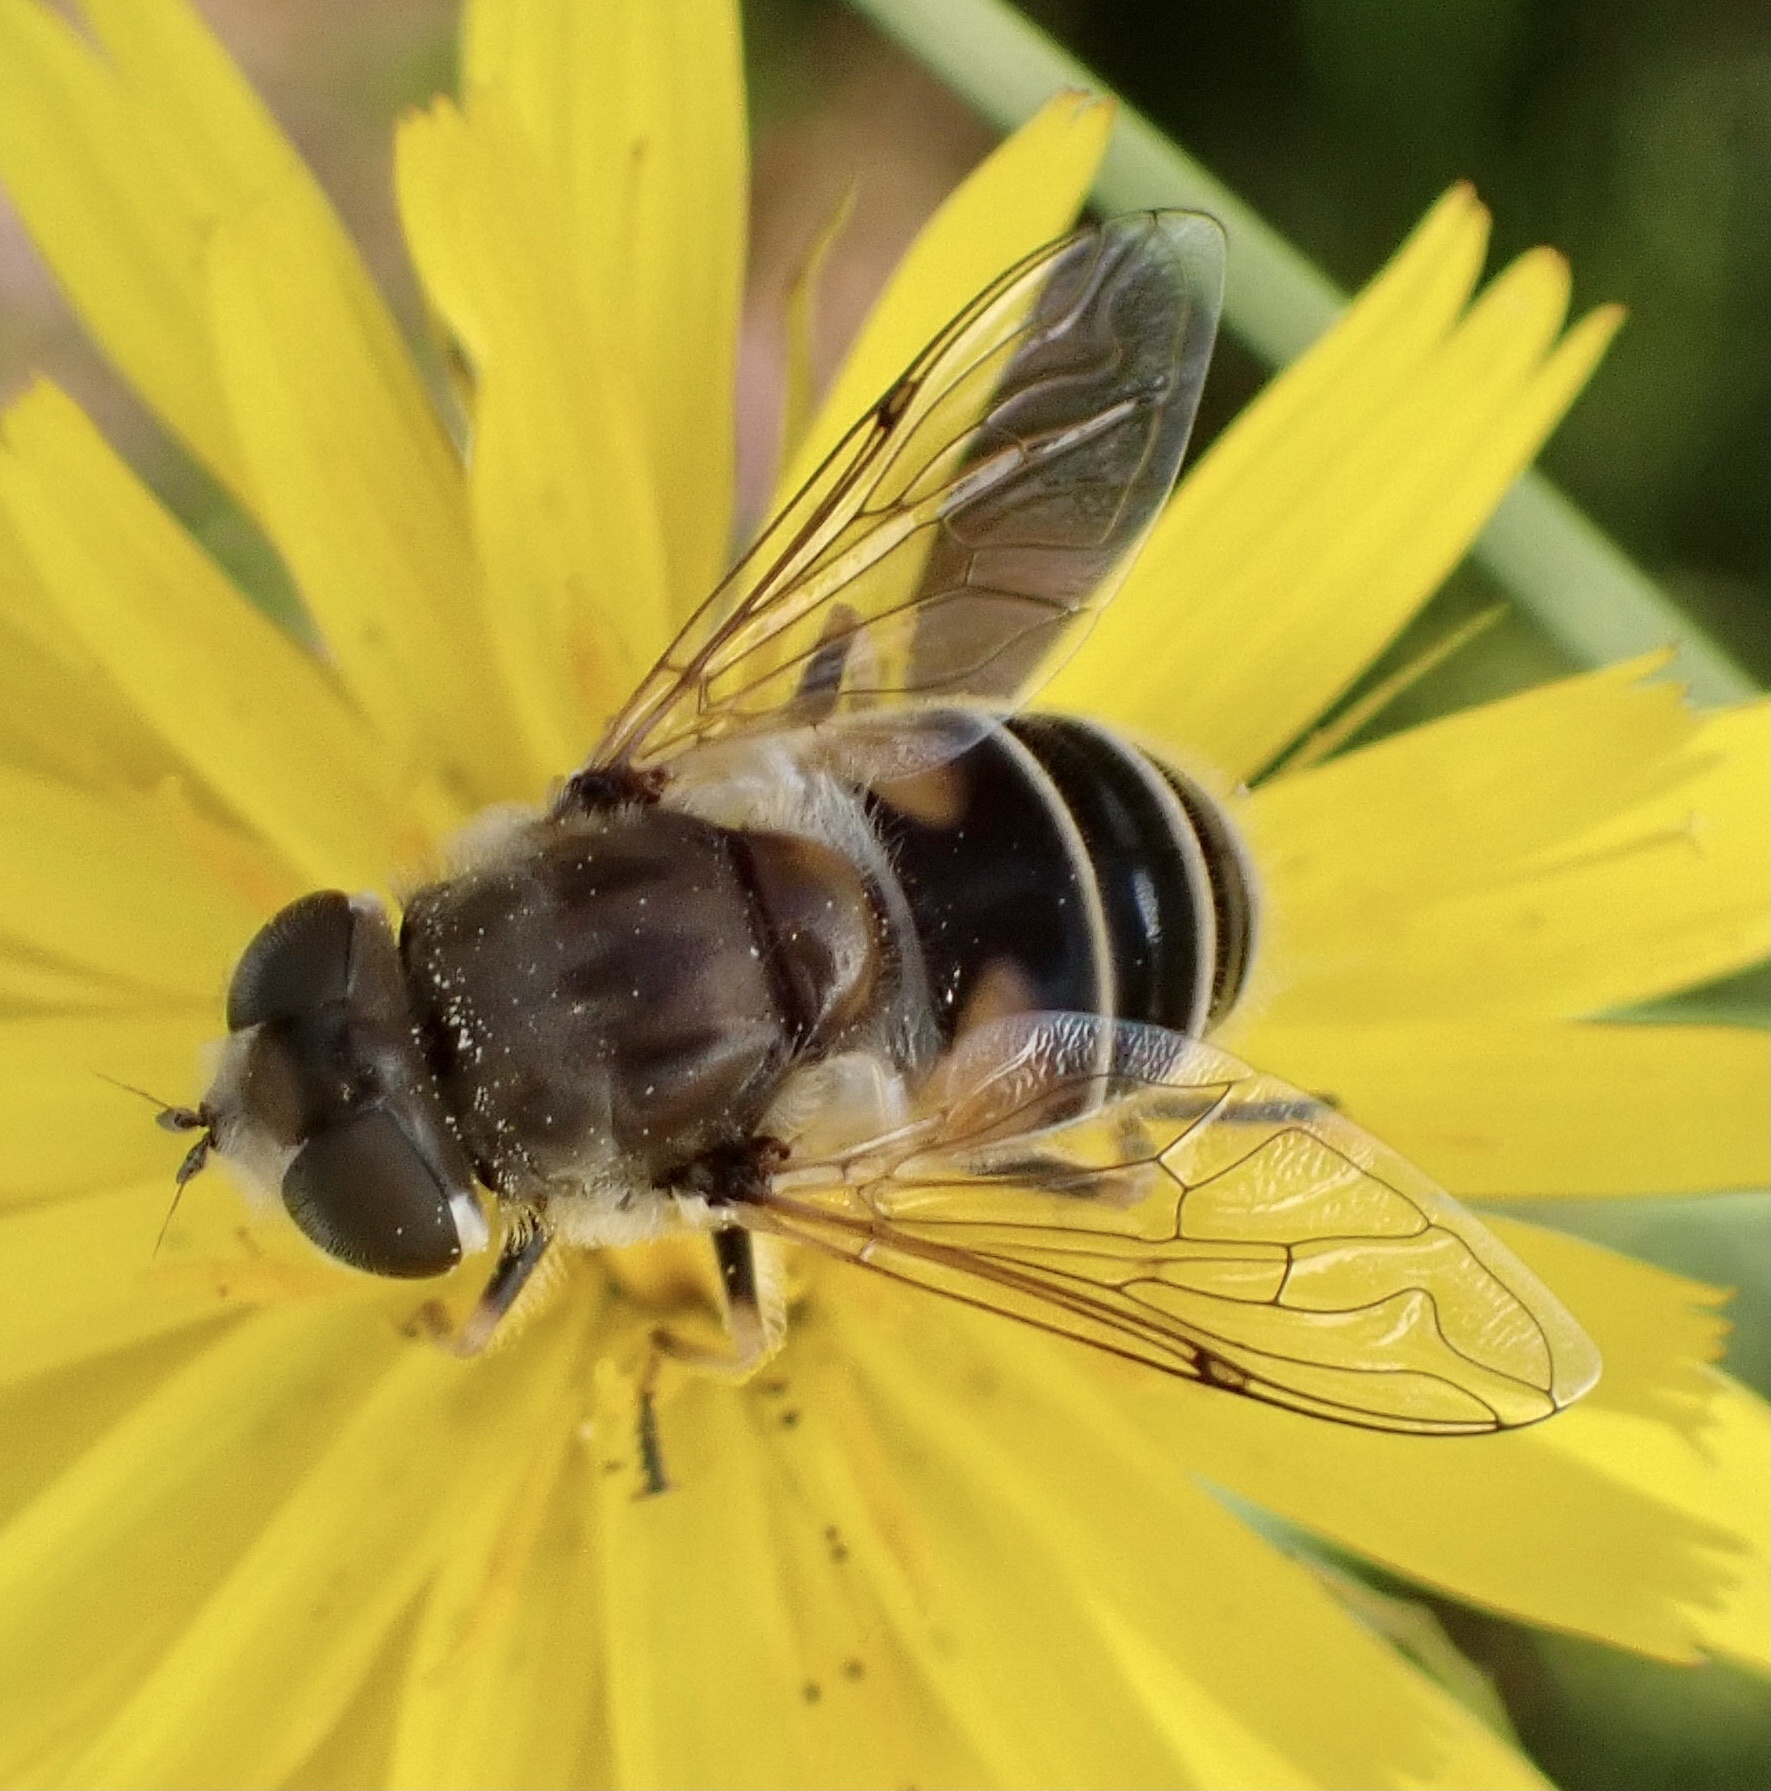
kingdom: Animalia
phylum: Arthropoda
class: Insecta
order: Diptera
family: Syrphidae
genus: Eristalis
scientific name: Eristalis arbustorum
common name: Hover fly
